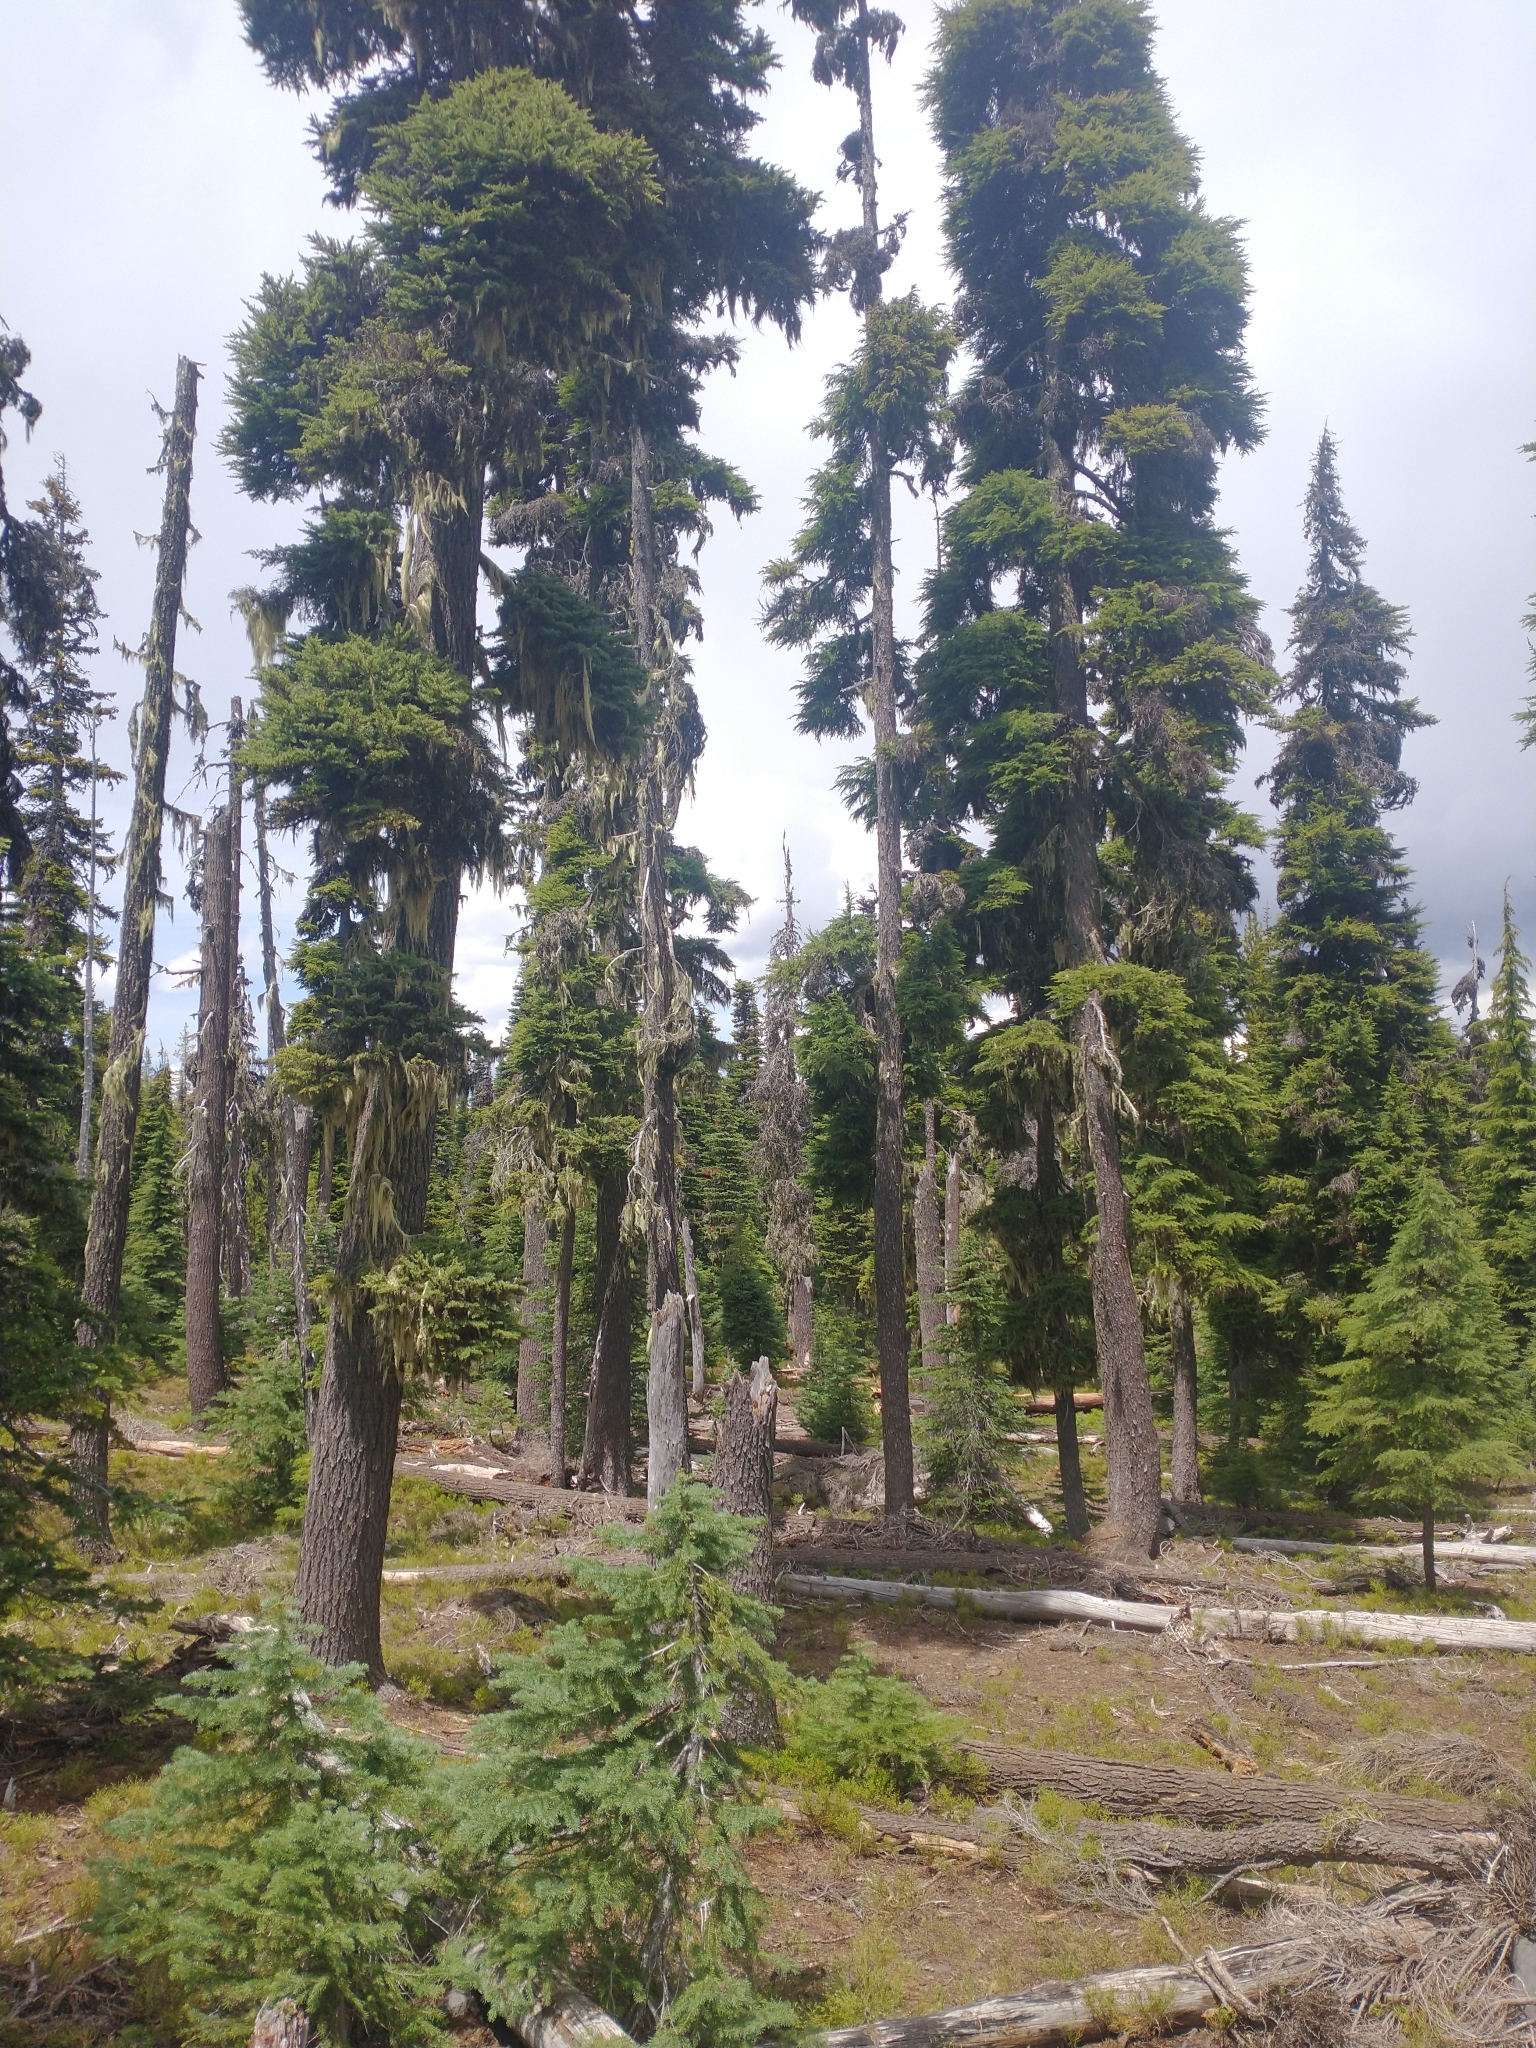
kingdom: Plantae
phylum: Tracheophyta
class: Pinopsida
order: Pinales
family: Pinaceae
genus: Tsuga
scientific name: Tsuga mertensiana
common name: Mountain hemlock
